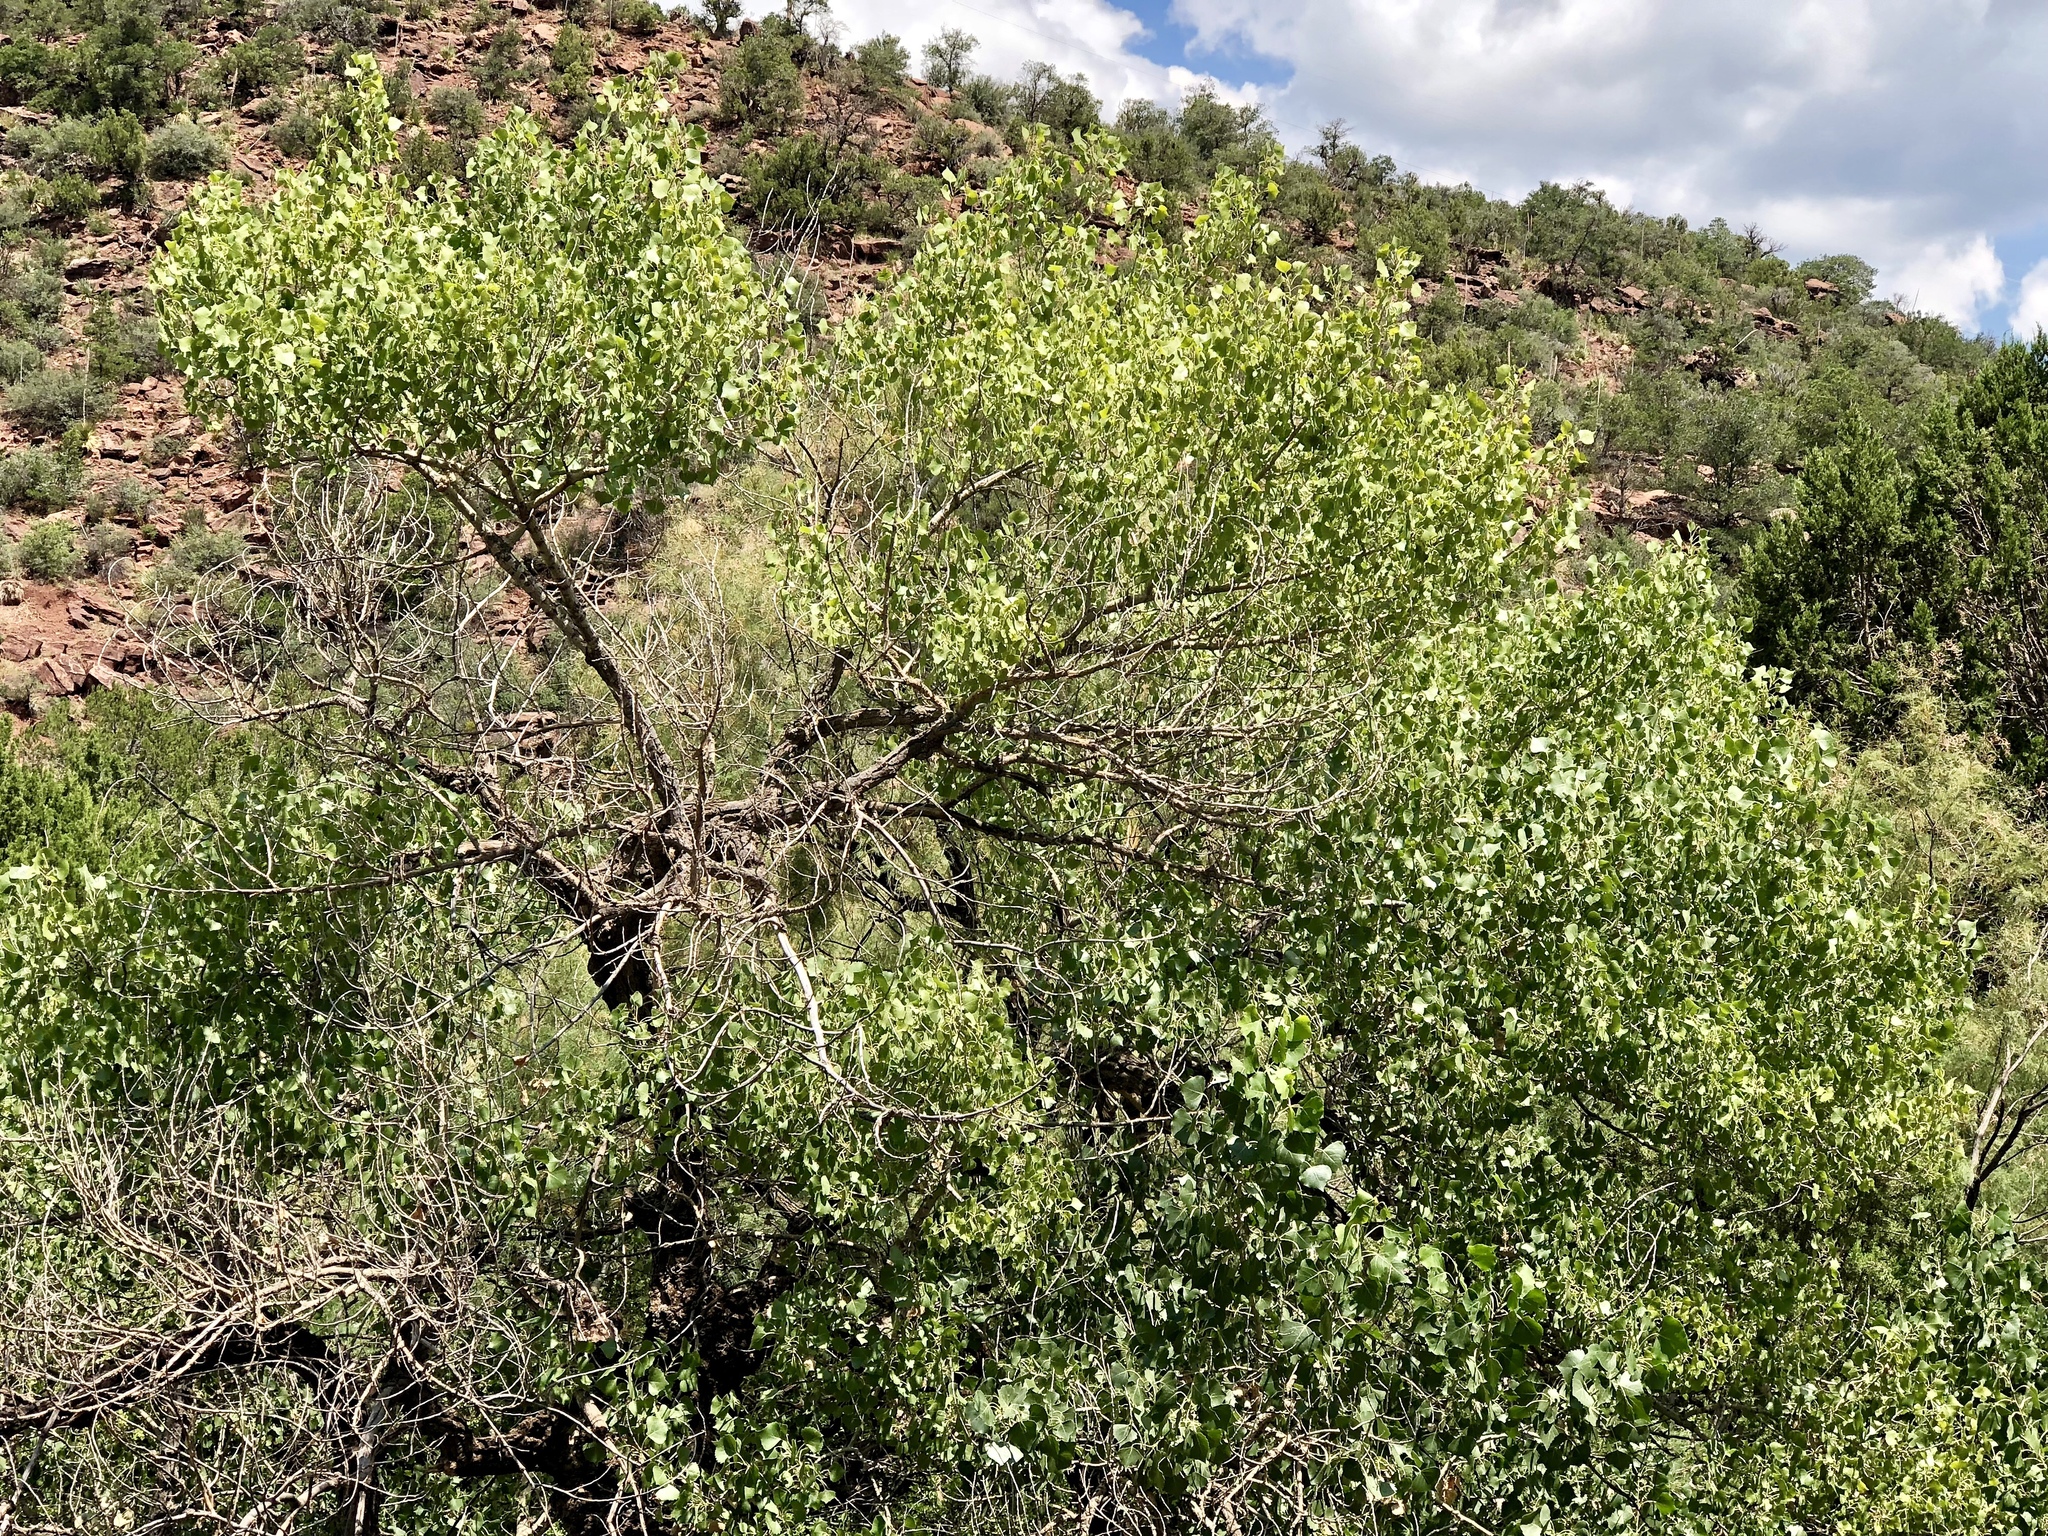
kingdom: Plantae
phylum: Tracheophyta
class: Magnoliopsida
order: Malpighiales
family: Salicaceae
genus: Populus
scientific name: Populus fremontii
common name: Fremont's cottonwood
